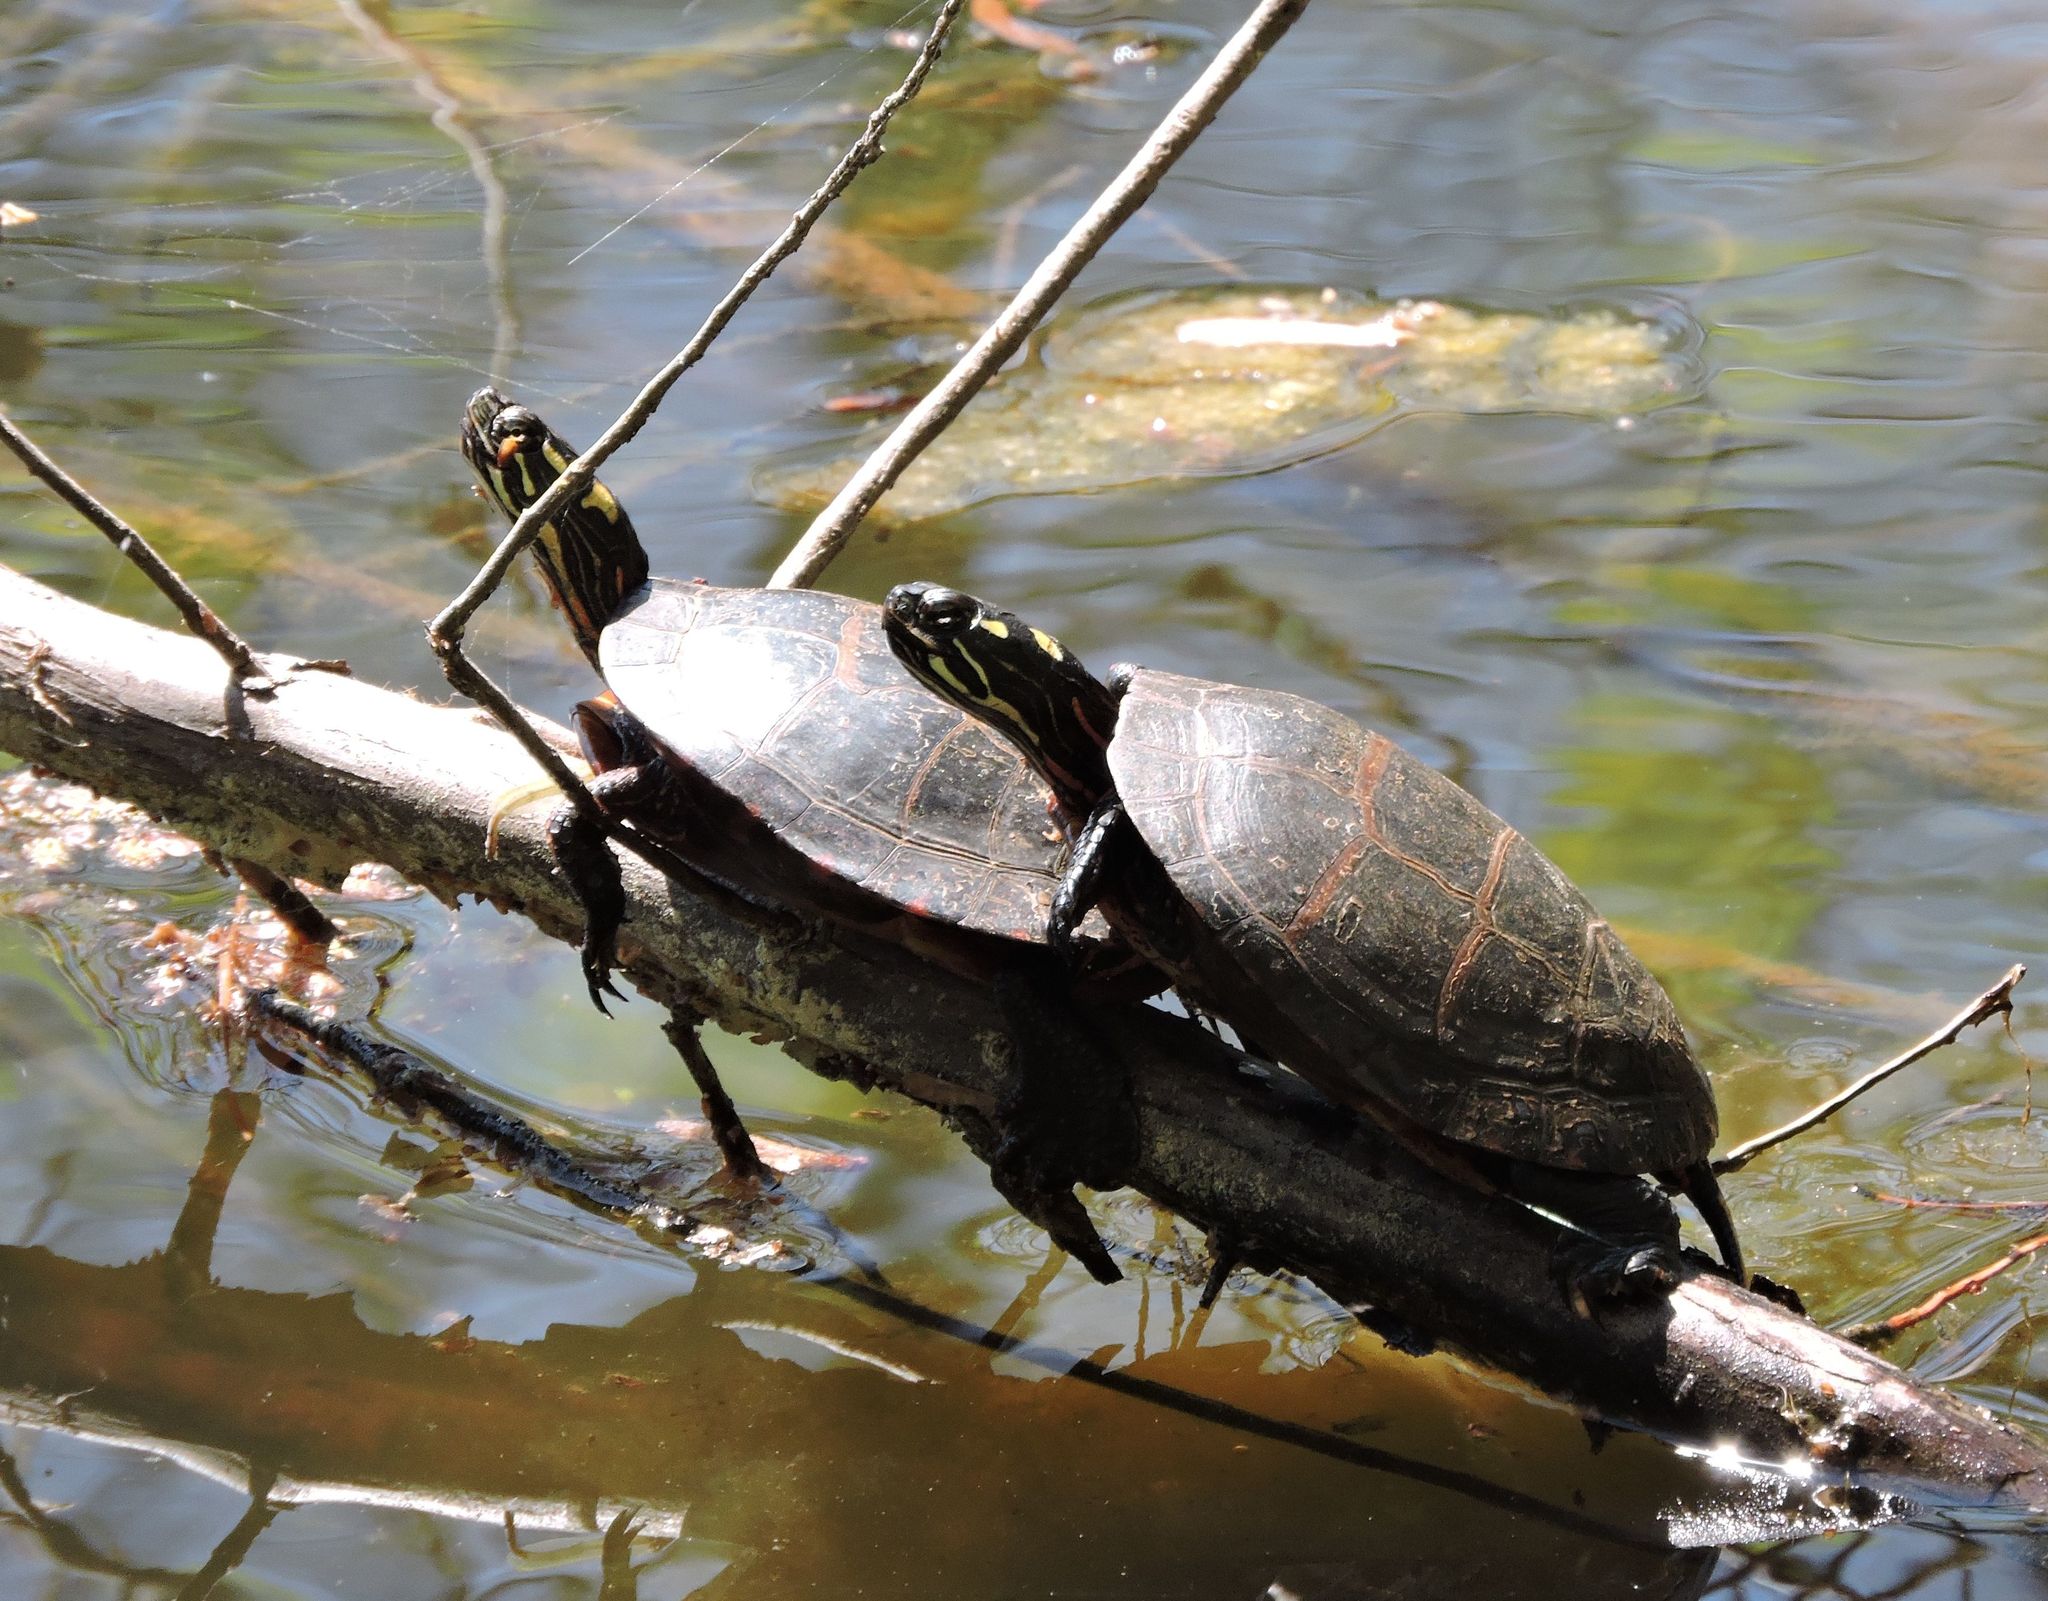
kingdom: Animalia
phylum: Chordata
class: Testudines
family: Emydidae
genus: Chrysemys
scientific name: Chrysemys picta
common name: Painted turtle
